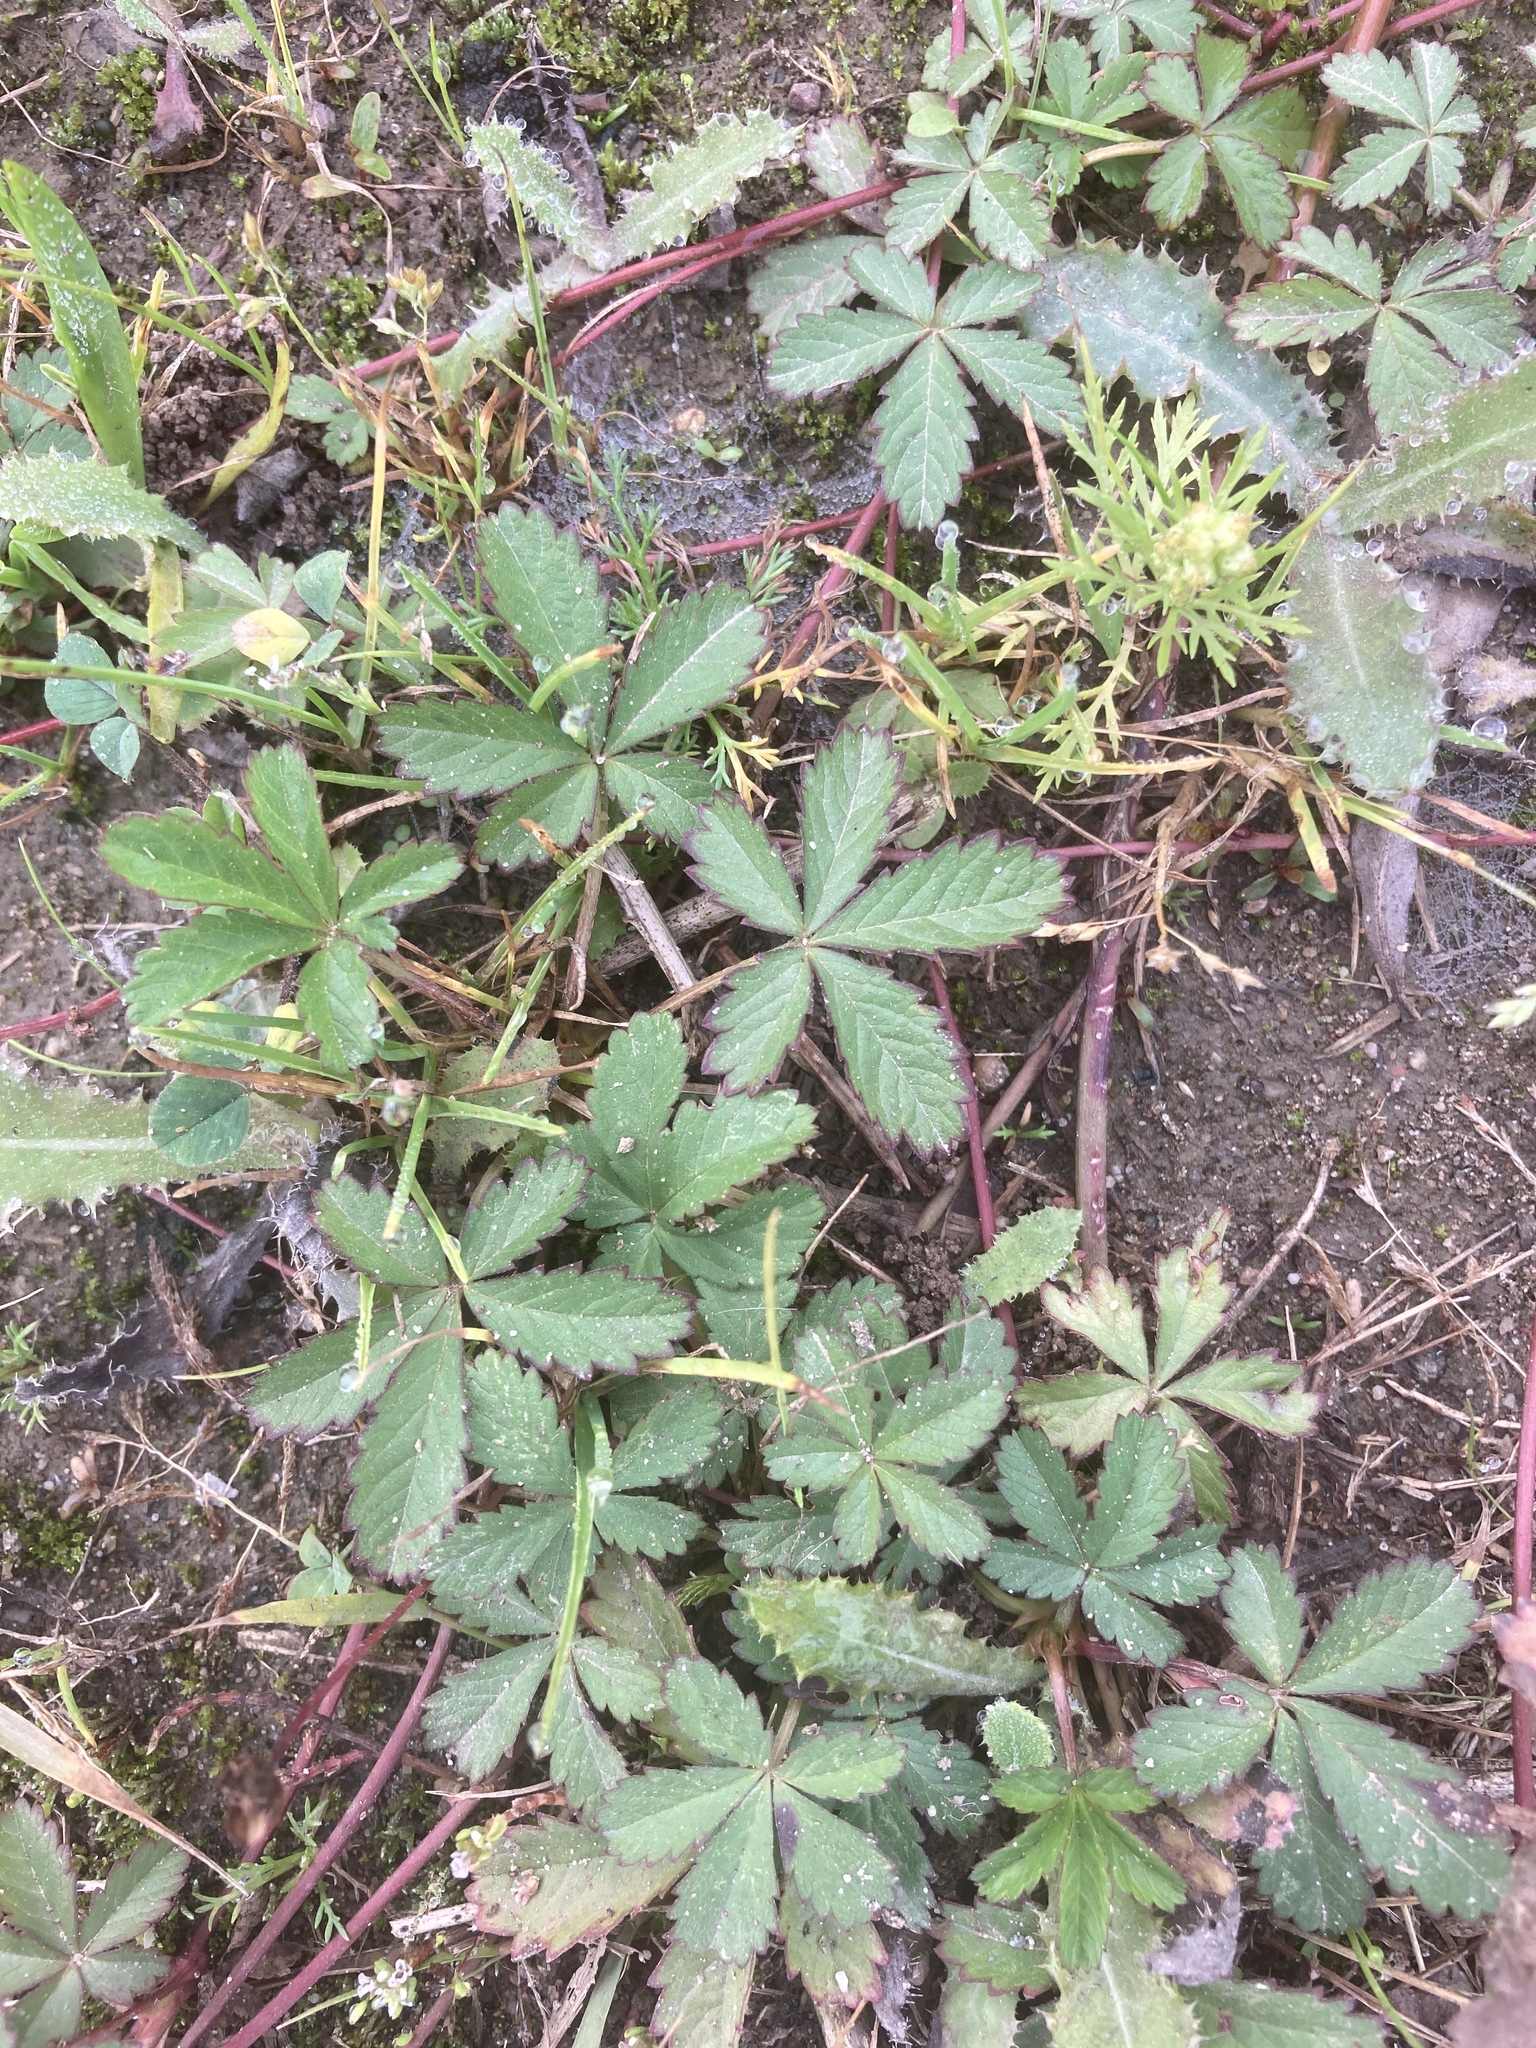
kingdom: Plantae
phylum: Tracheophyta
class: Magnoliopsida
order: Rosales
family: Rosaceae
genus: Potentilla
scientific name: Potentilla reptans
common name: Creeping cinquefoil
